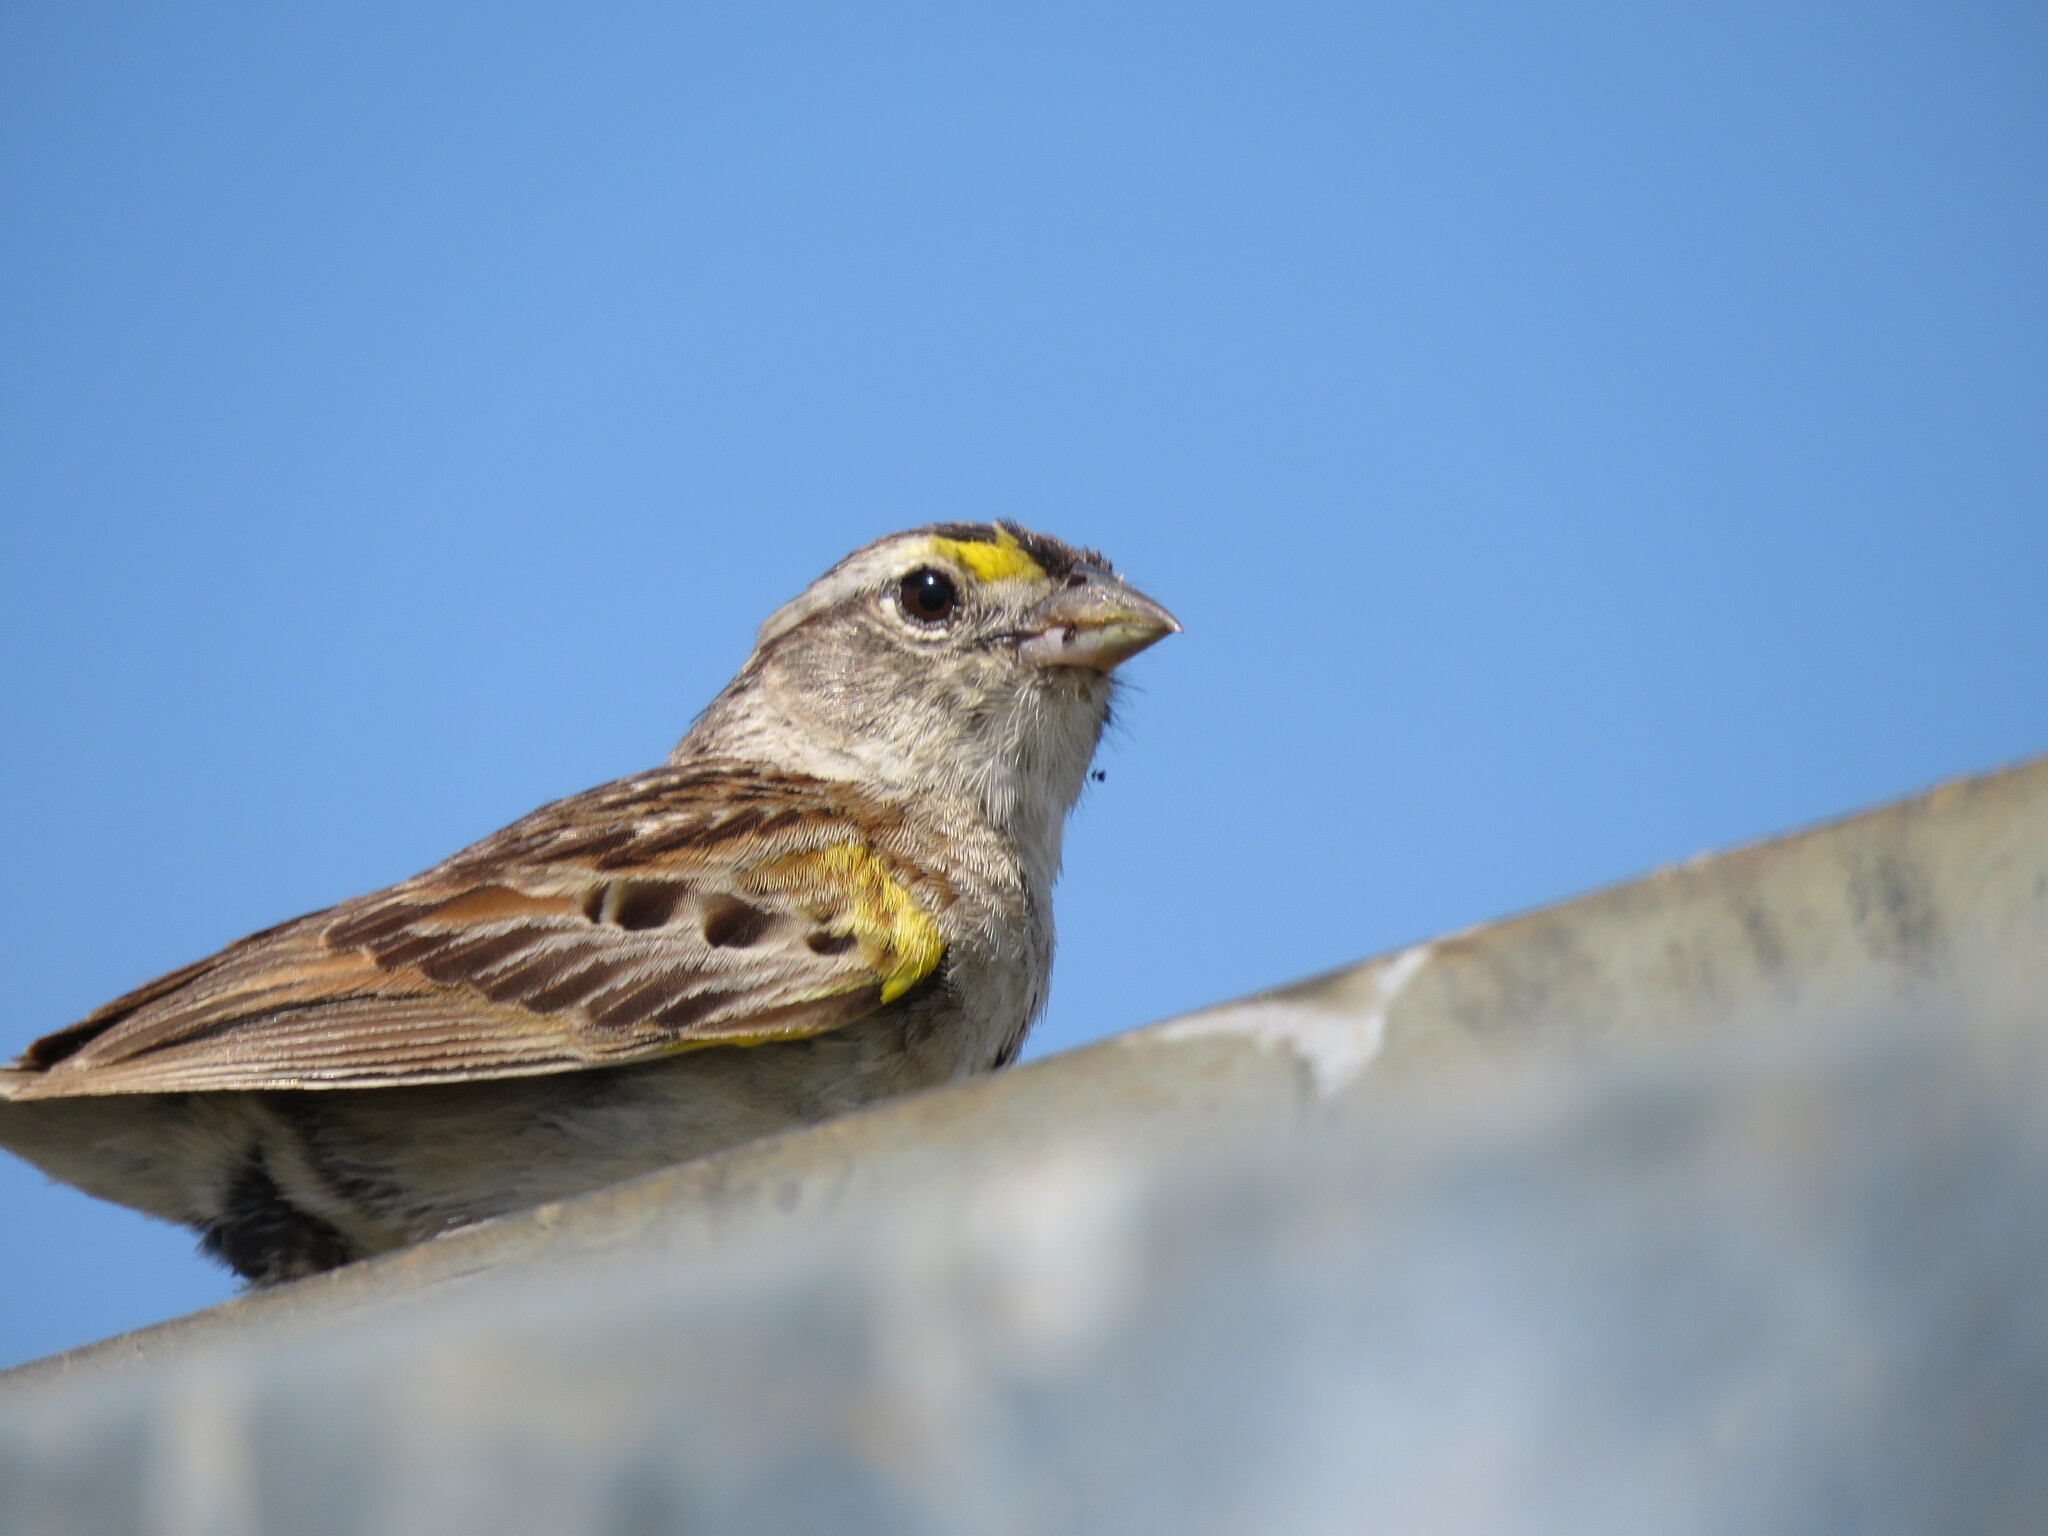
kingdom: Animalia
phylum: Chordata
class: Aves
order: Passeriformes
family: Passerellidae
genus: Ammodramus
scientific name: Ammodramus humeralis
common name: Grassland sparrow
